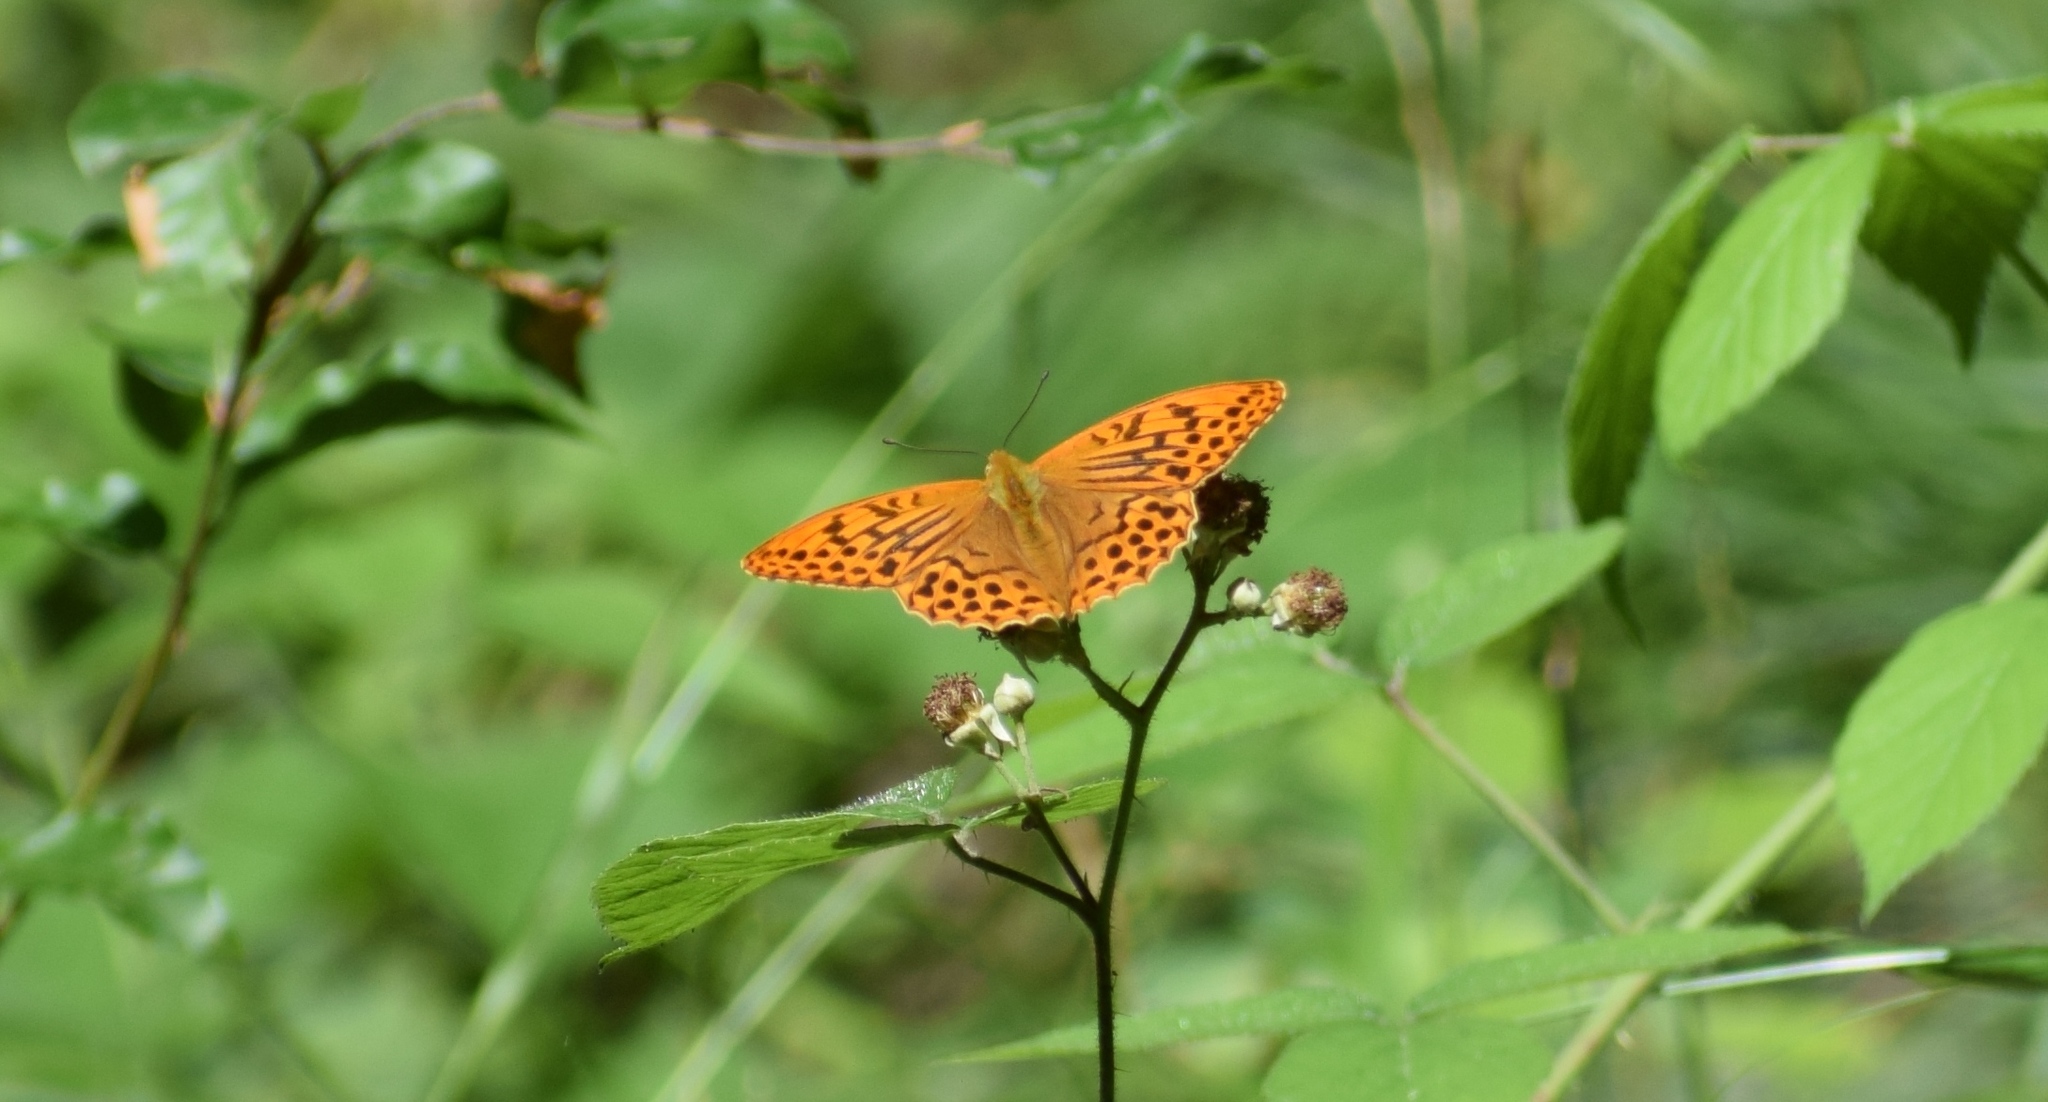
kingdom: Animalia
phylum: Arthropoda
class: Insecta
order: Lepidoptera
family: Nymphalidae
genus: Argynnis
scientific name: Argynnis paphia
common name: Silver-washed fritillary
